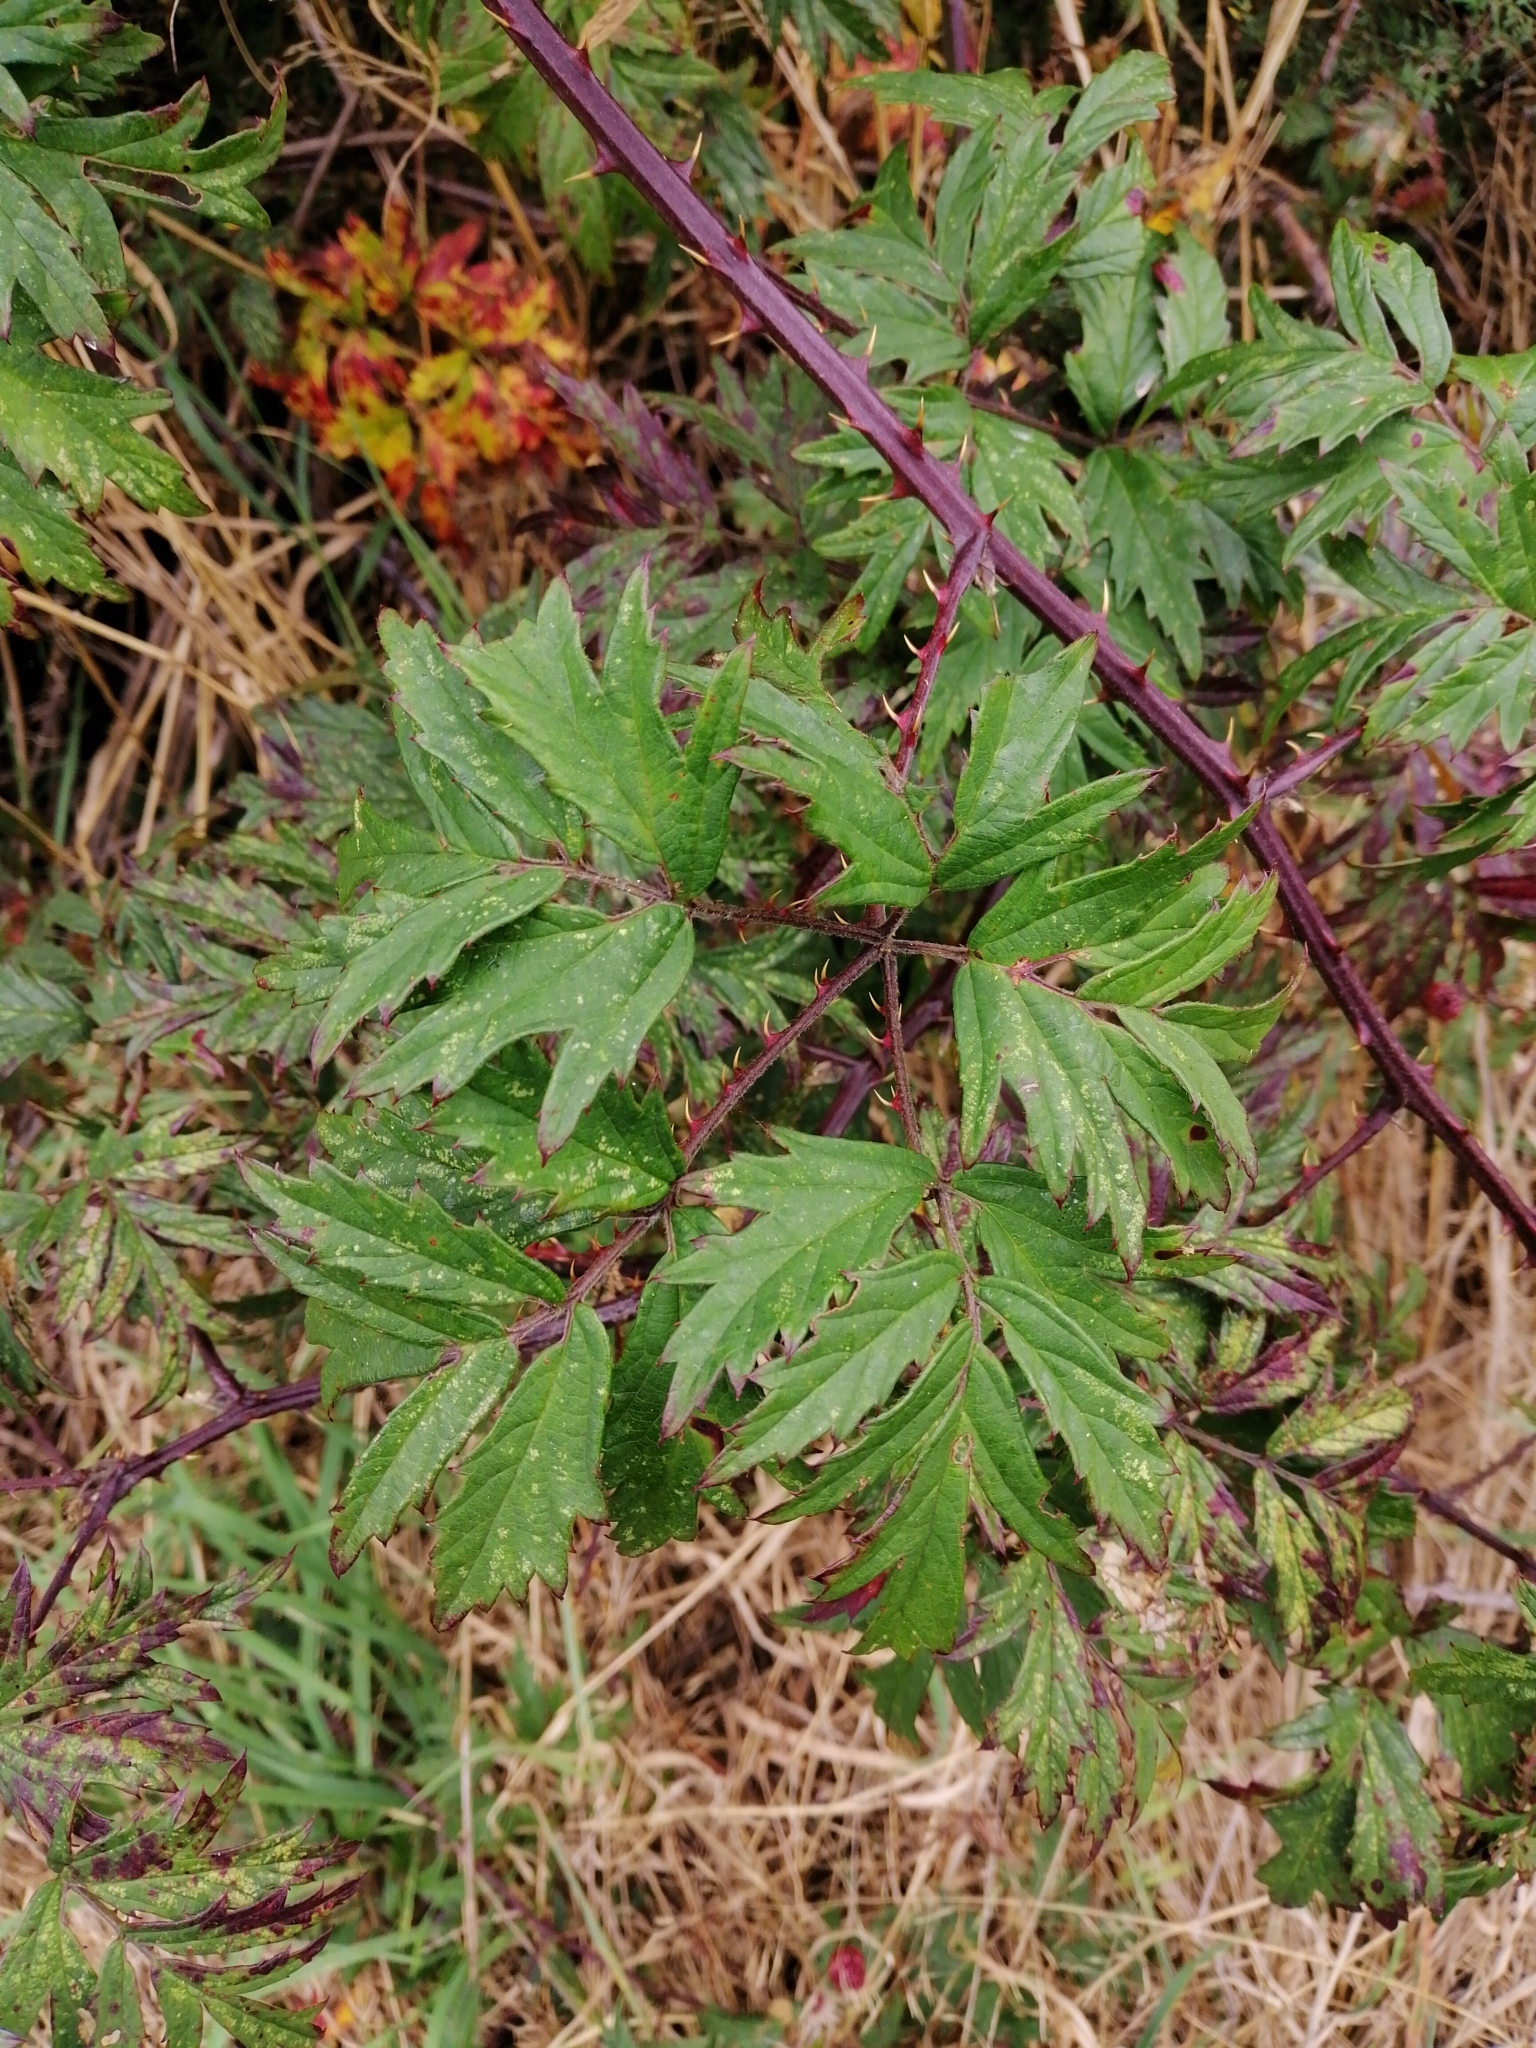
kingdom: Plantae
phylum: Tracheophyta
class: Magnoliopsida
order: Rosales
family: Rosaceae
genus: Rubus
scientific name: Rubus laciniatus
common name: Evergreen blackberry
